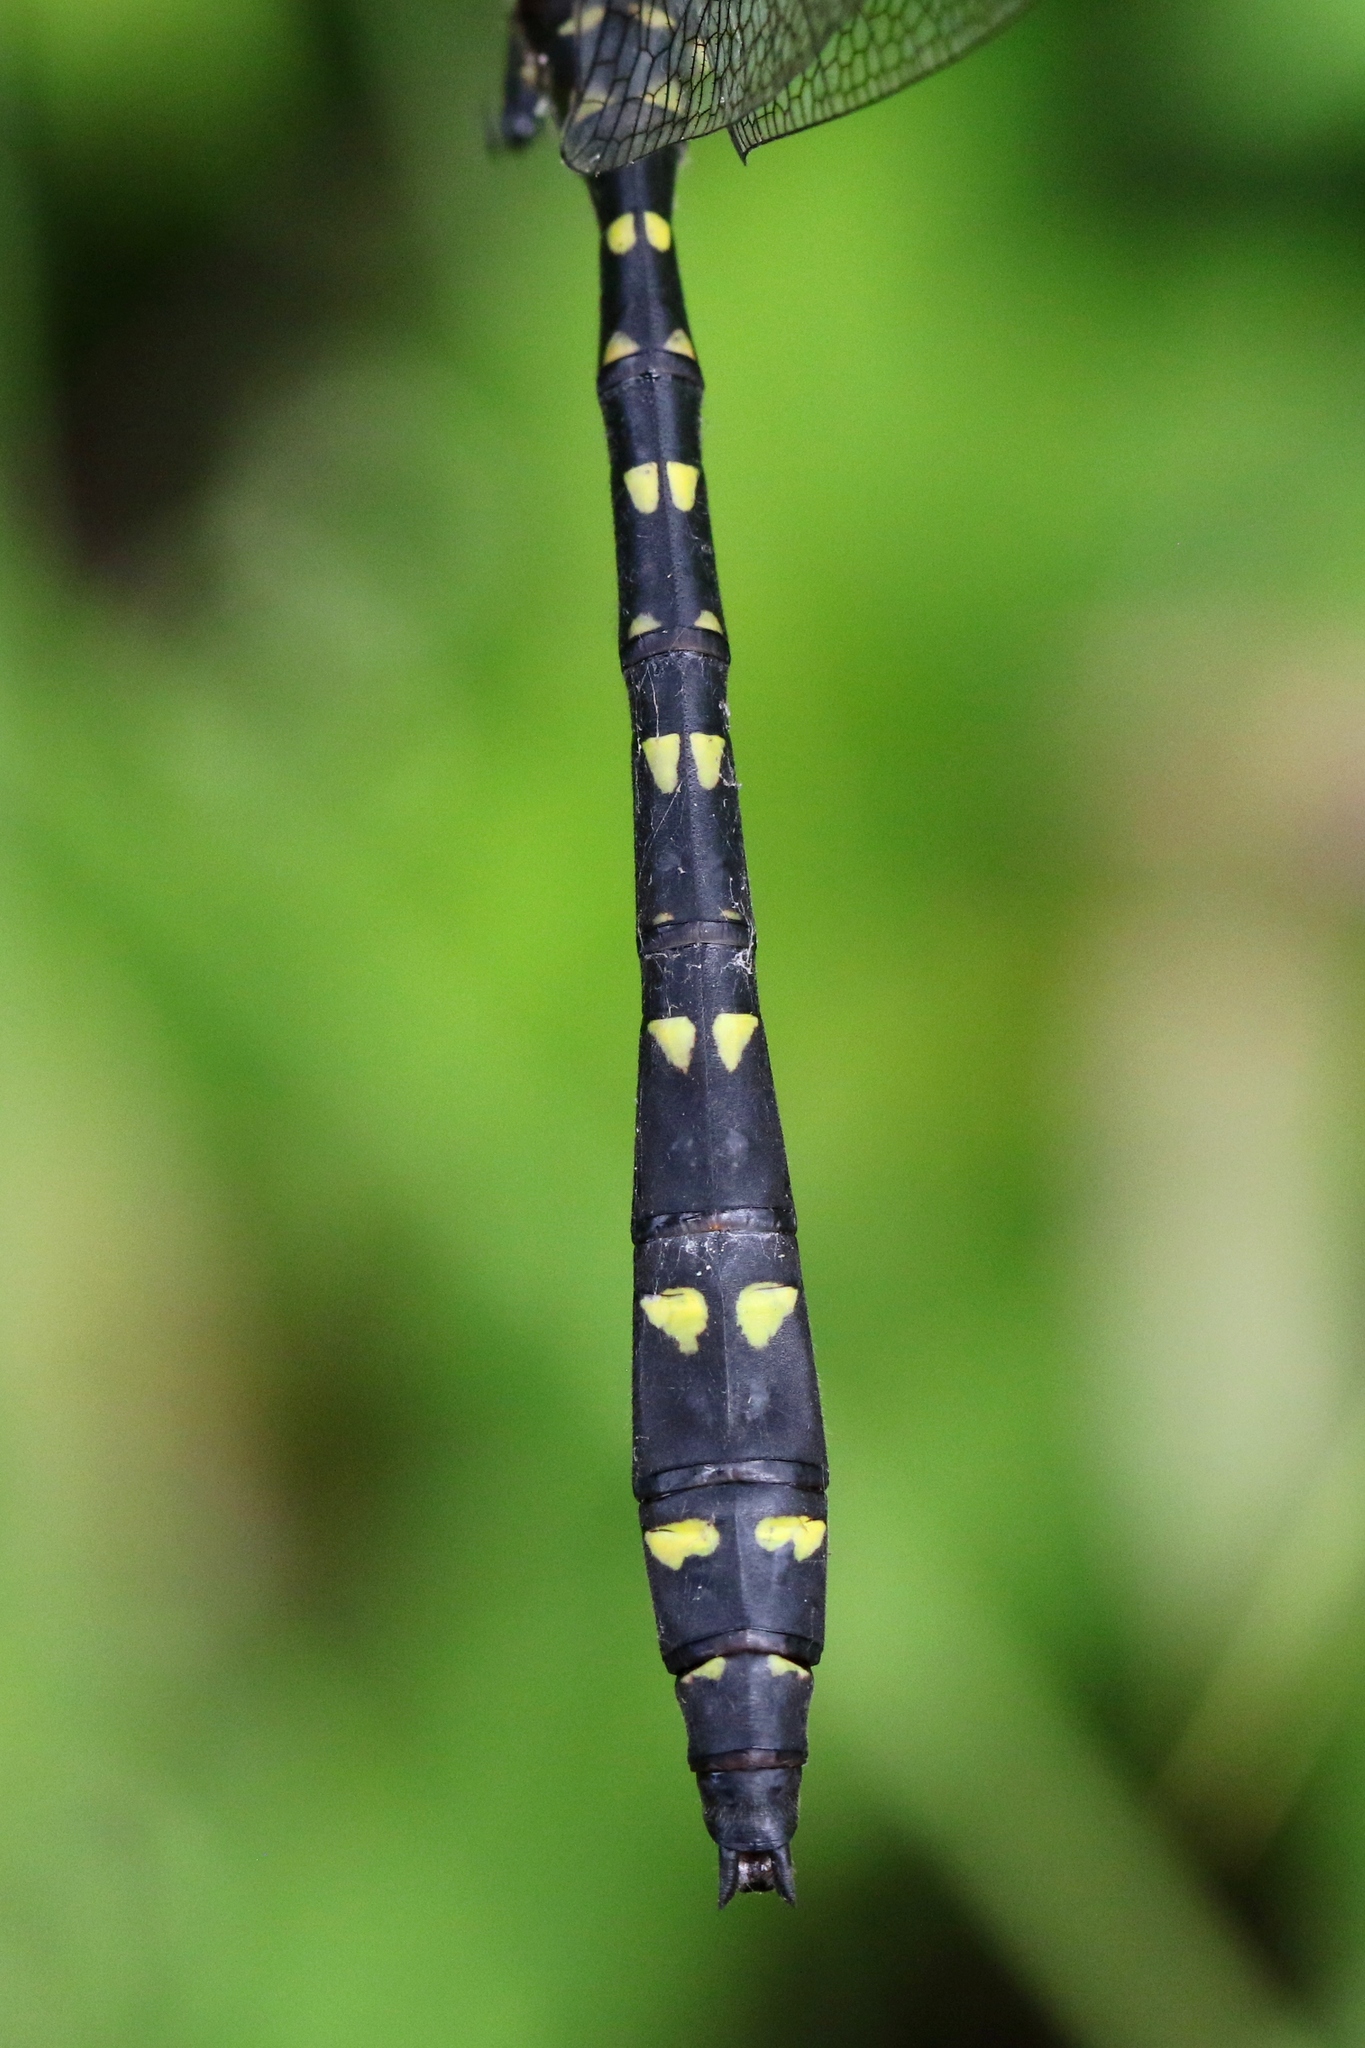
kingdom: Animalia
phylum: Arthropoda
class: Insecta
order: Odonata
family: Cordulegastridae
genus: Cordulegaster
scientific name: Cordulegaster maculata
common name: Twin-spotted spiketail
